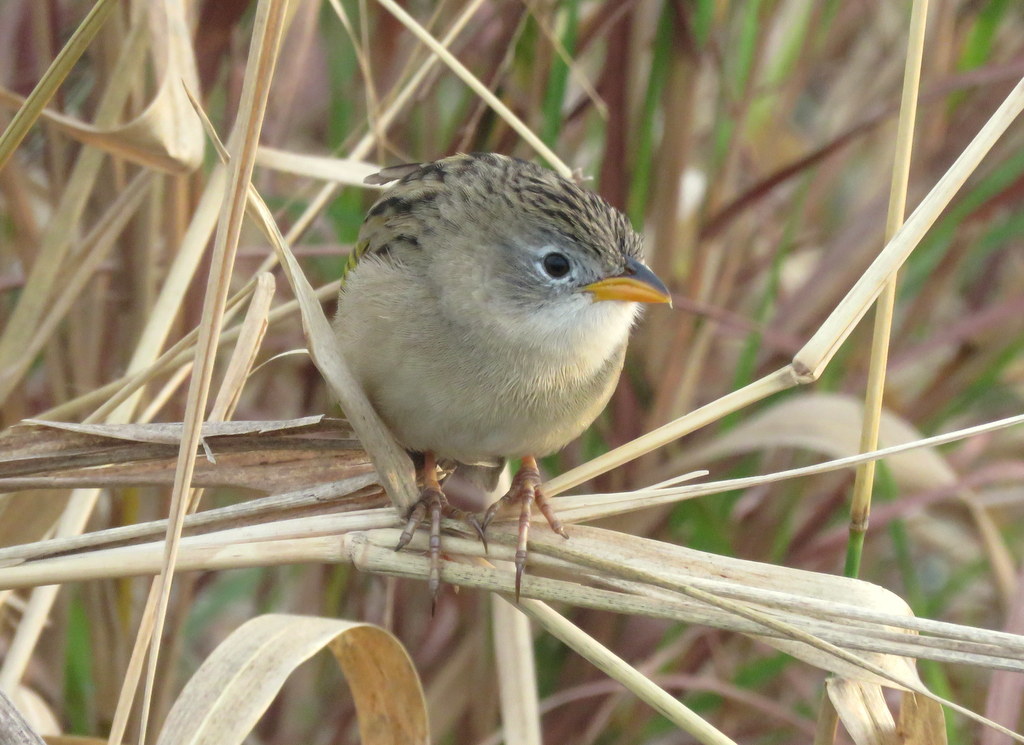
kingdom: Animalia
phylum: Chordata
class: Aves
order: Passeriformes
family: Thraupidae
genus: Emberizoides
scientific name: Emberizoides ypiranganus
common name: Lesser grass finch
